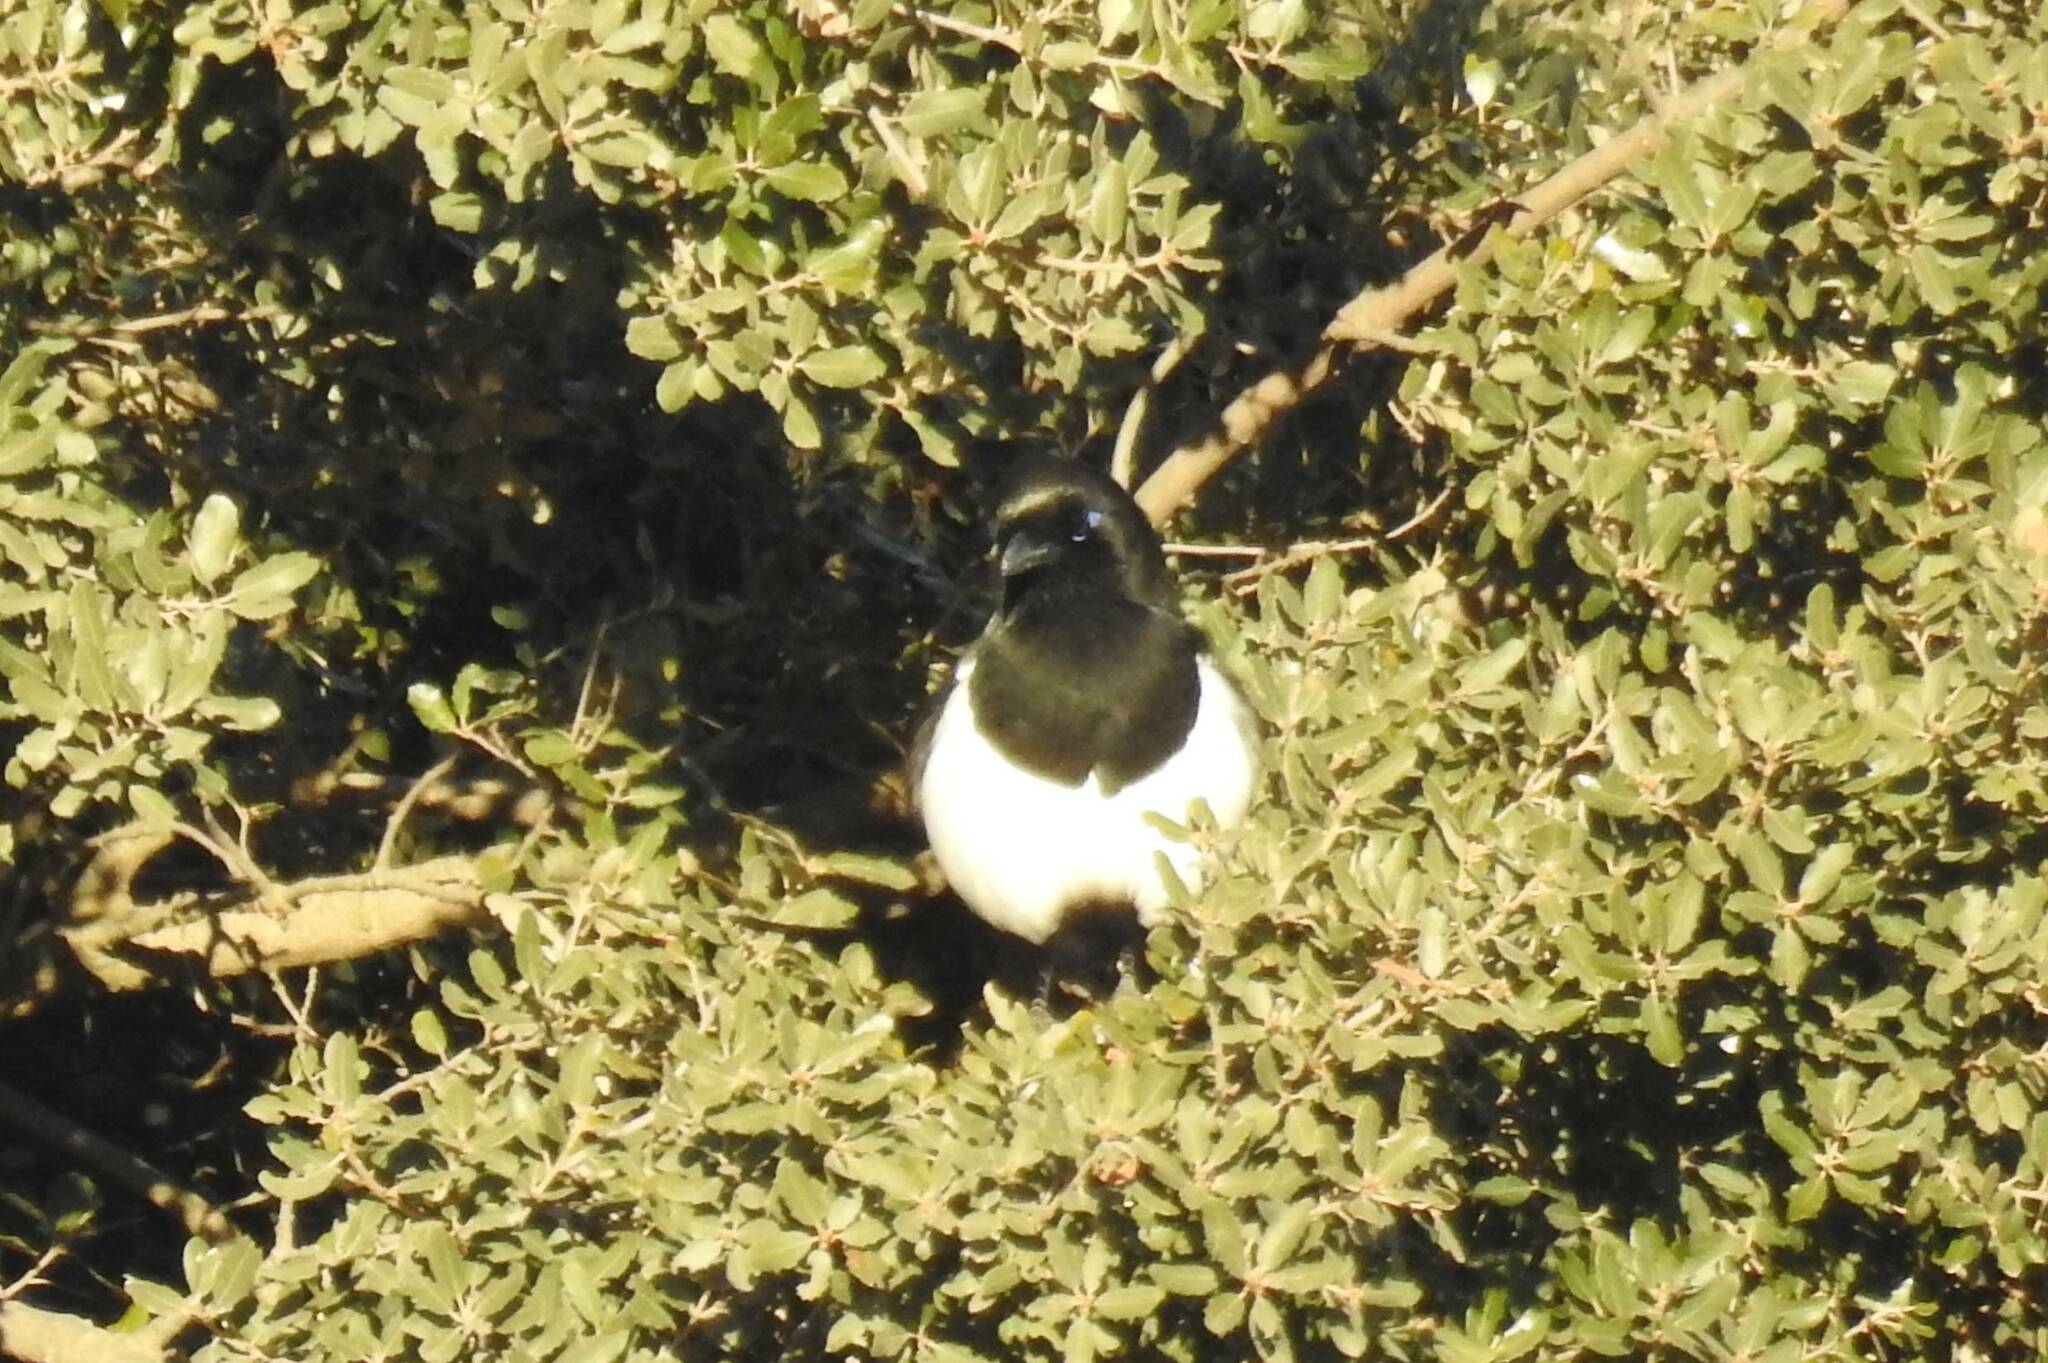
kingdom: Animalia
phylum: Chordata
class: Aves
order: Passeriformes
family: Corvidae
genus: Pica
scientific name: Pica mauritanica
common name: Maghreb magpie
